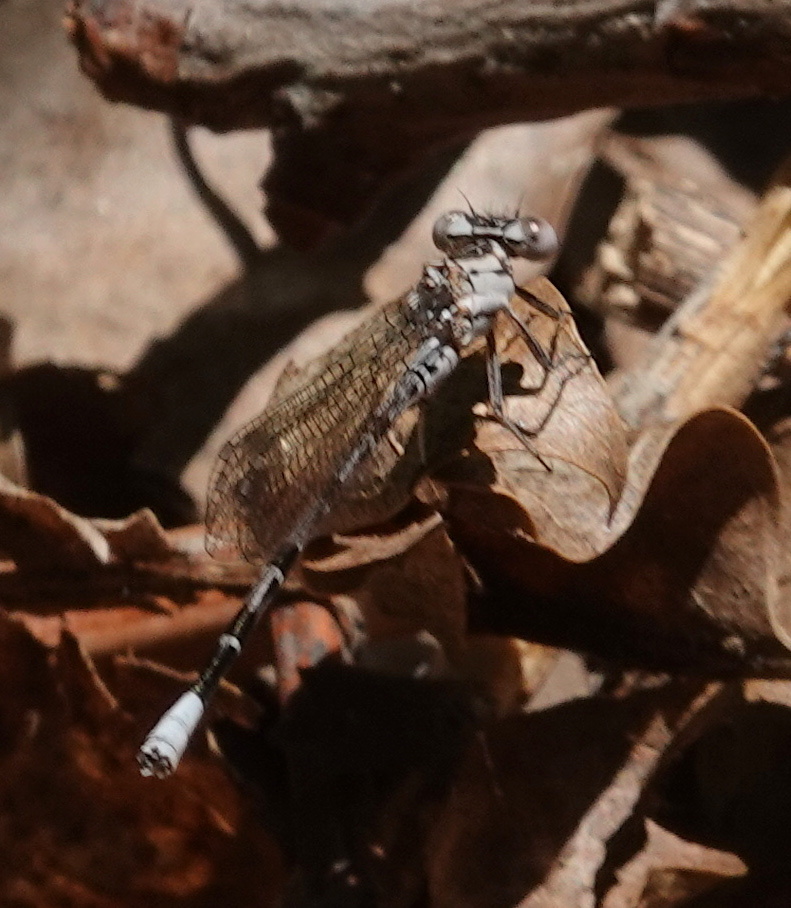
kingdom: Animalia
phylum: Arthropoda
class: Insecta
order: Odonata
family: Coenagrionidae
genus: Argia
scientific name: Argia vivida
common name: Vivid dancer
